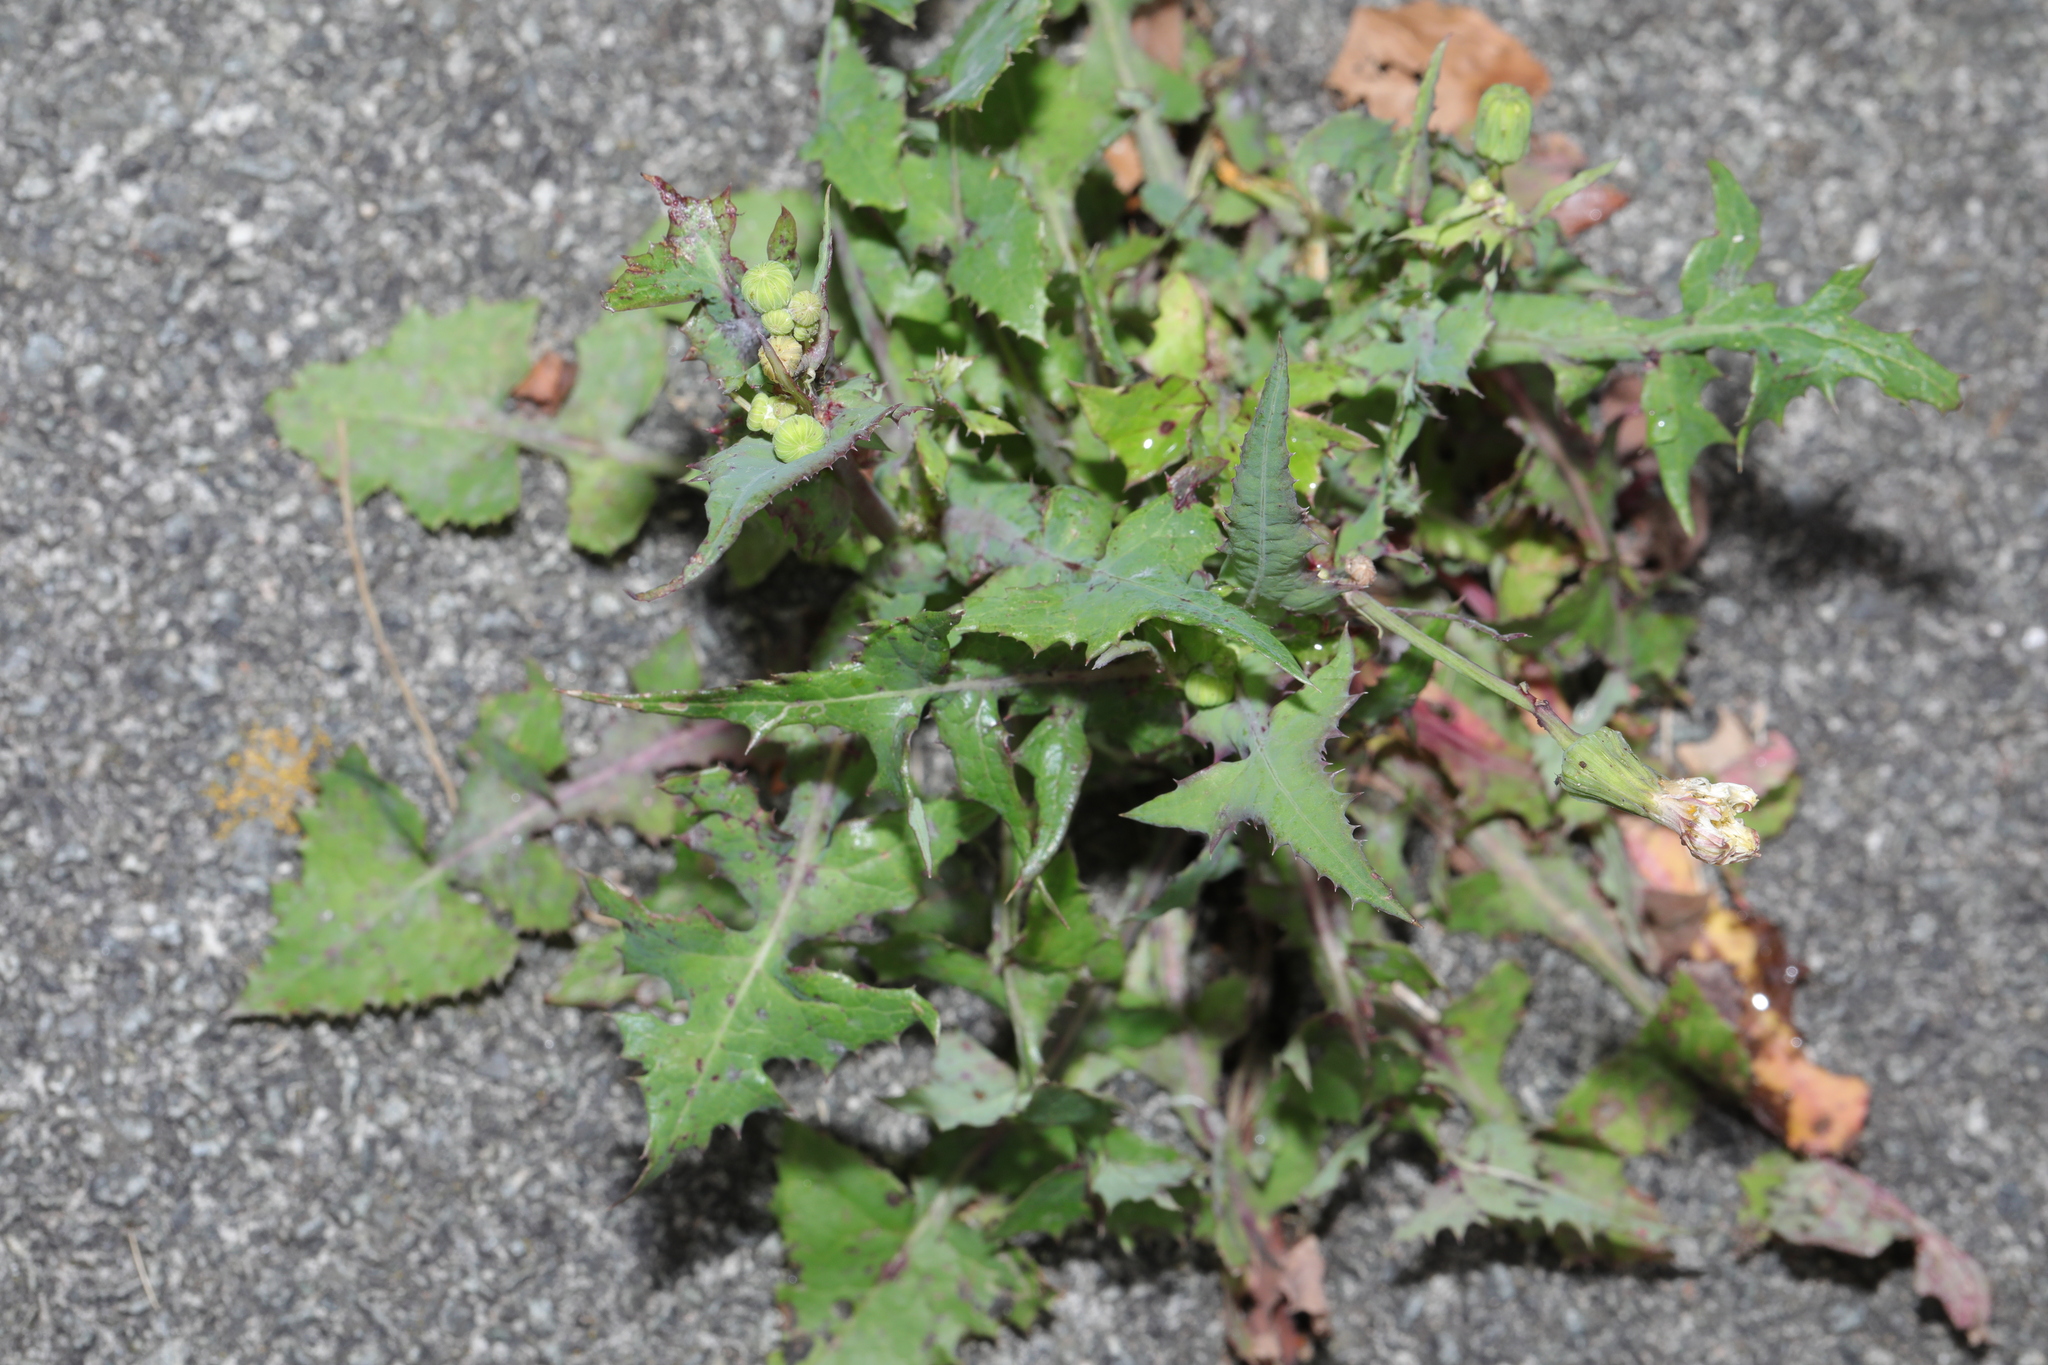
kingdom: Plantae
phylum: Tracheophyta
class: Magnoliopsida
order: Asterales
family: Asteraceae
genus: Sonchus
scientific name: Sonchus oleraceus
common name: Common sowthistle
